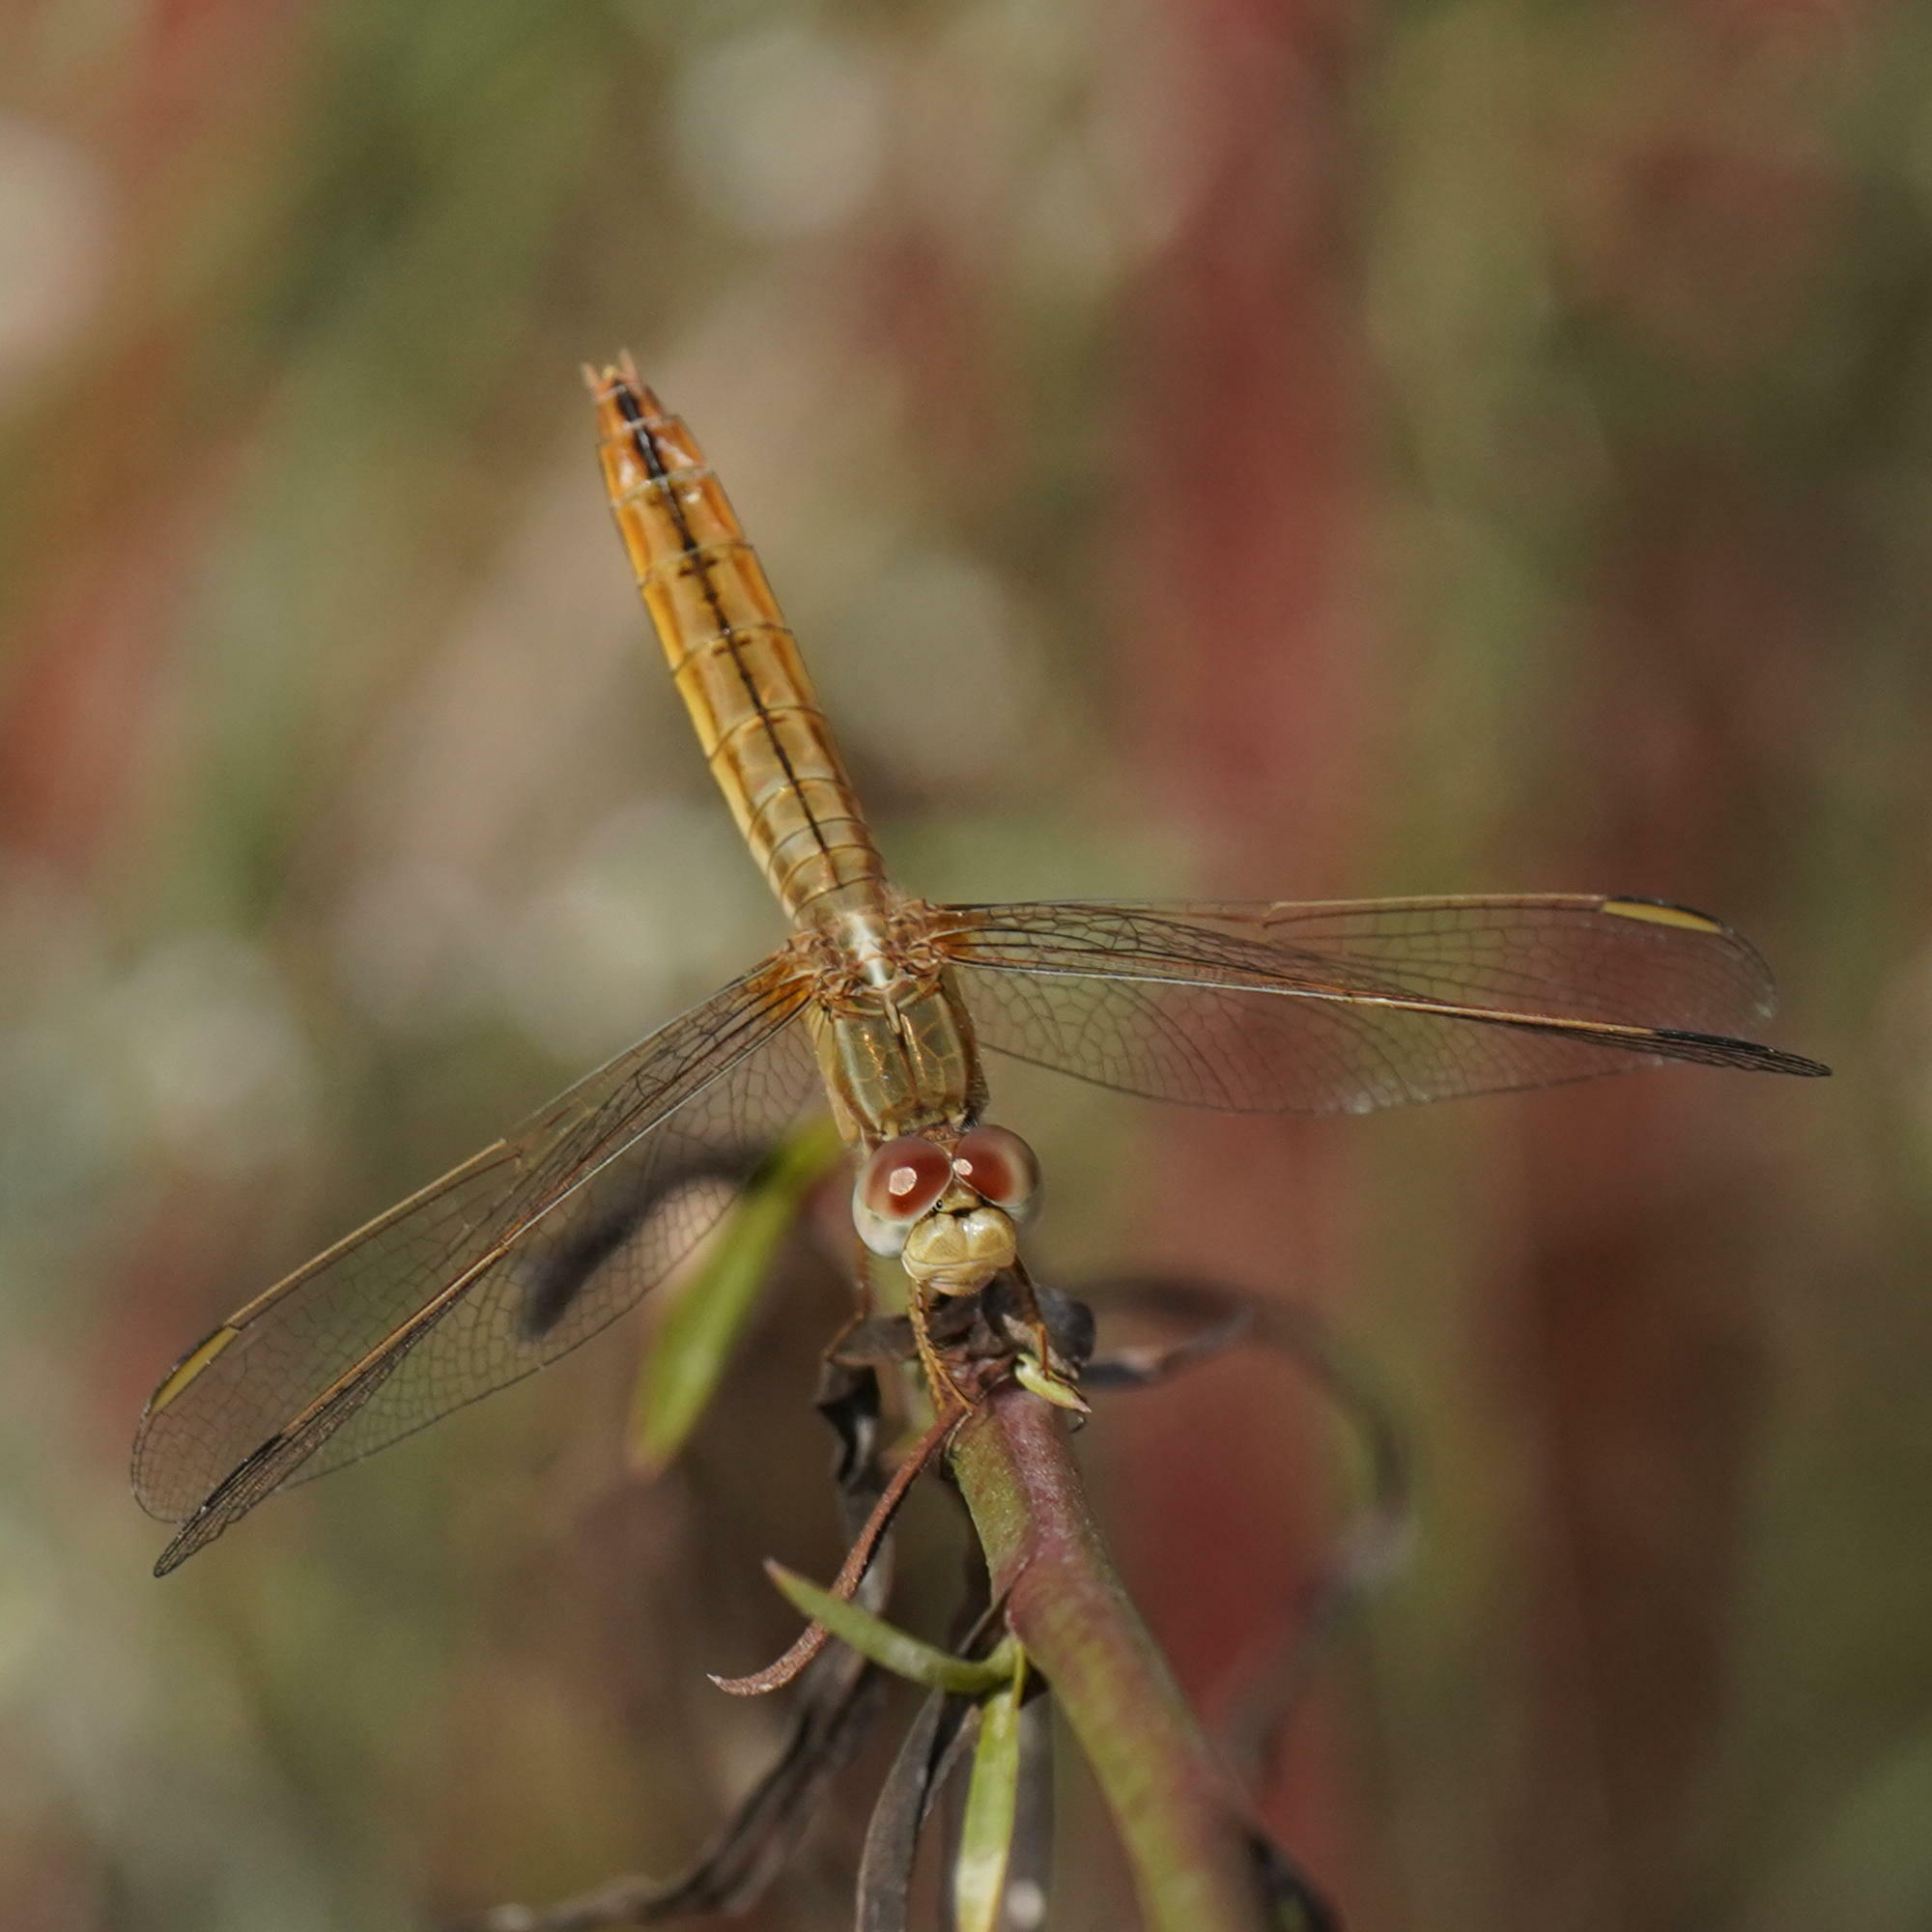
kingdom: Animalia
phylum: Arthropoda
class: Insecta
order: Odonata
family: Libellulidae
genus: Crocothemis
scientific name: Crocothemis erythraea
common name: Scarlet dragonfly
